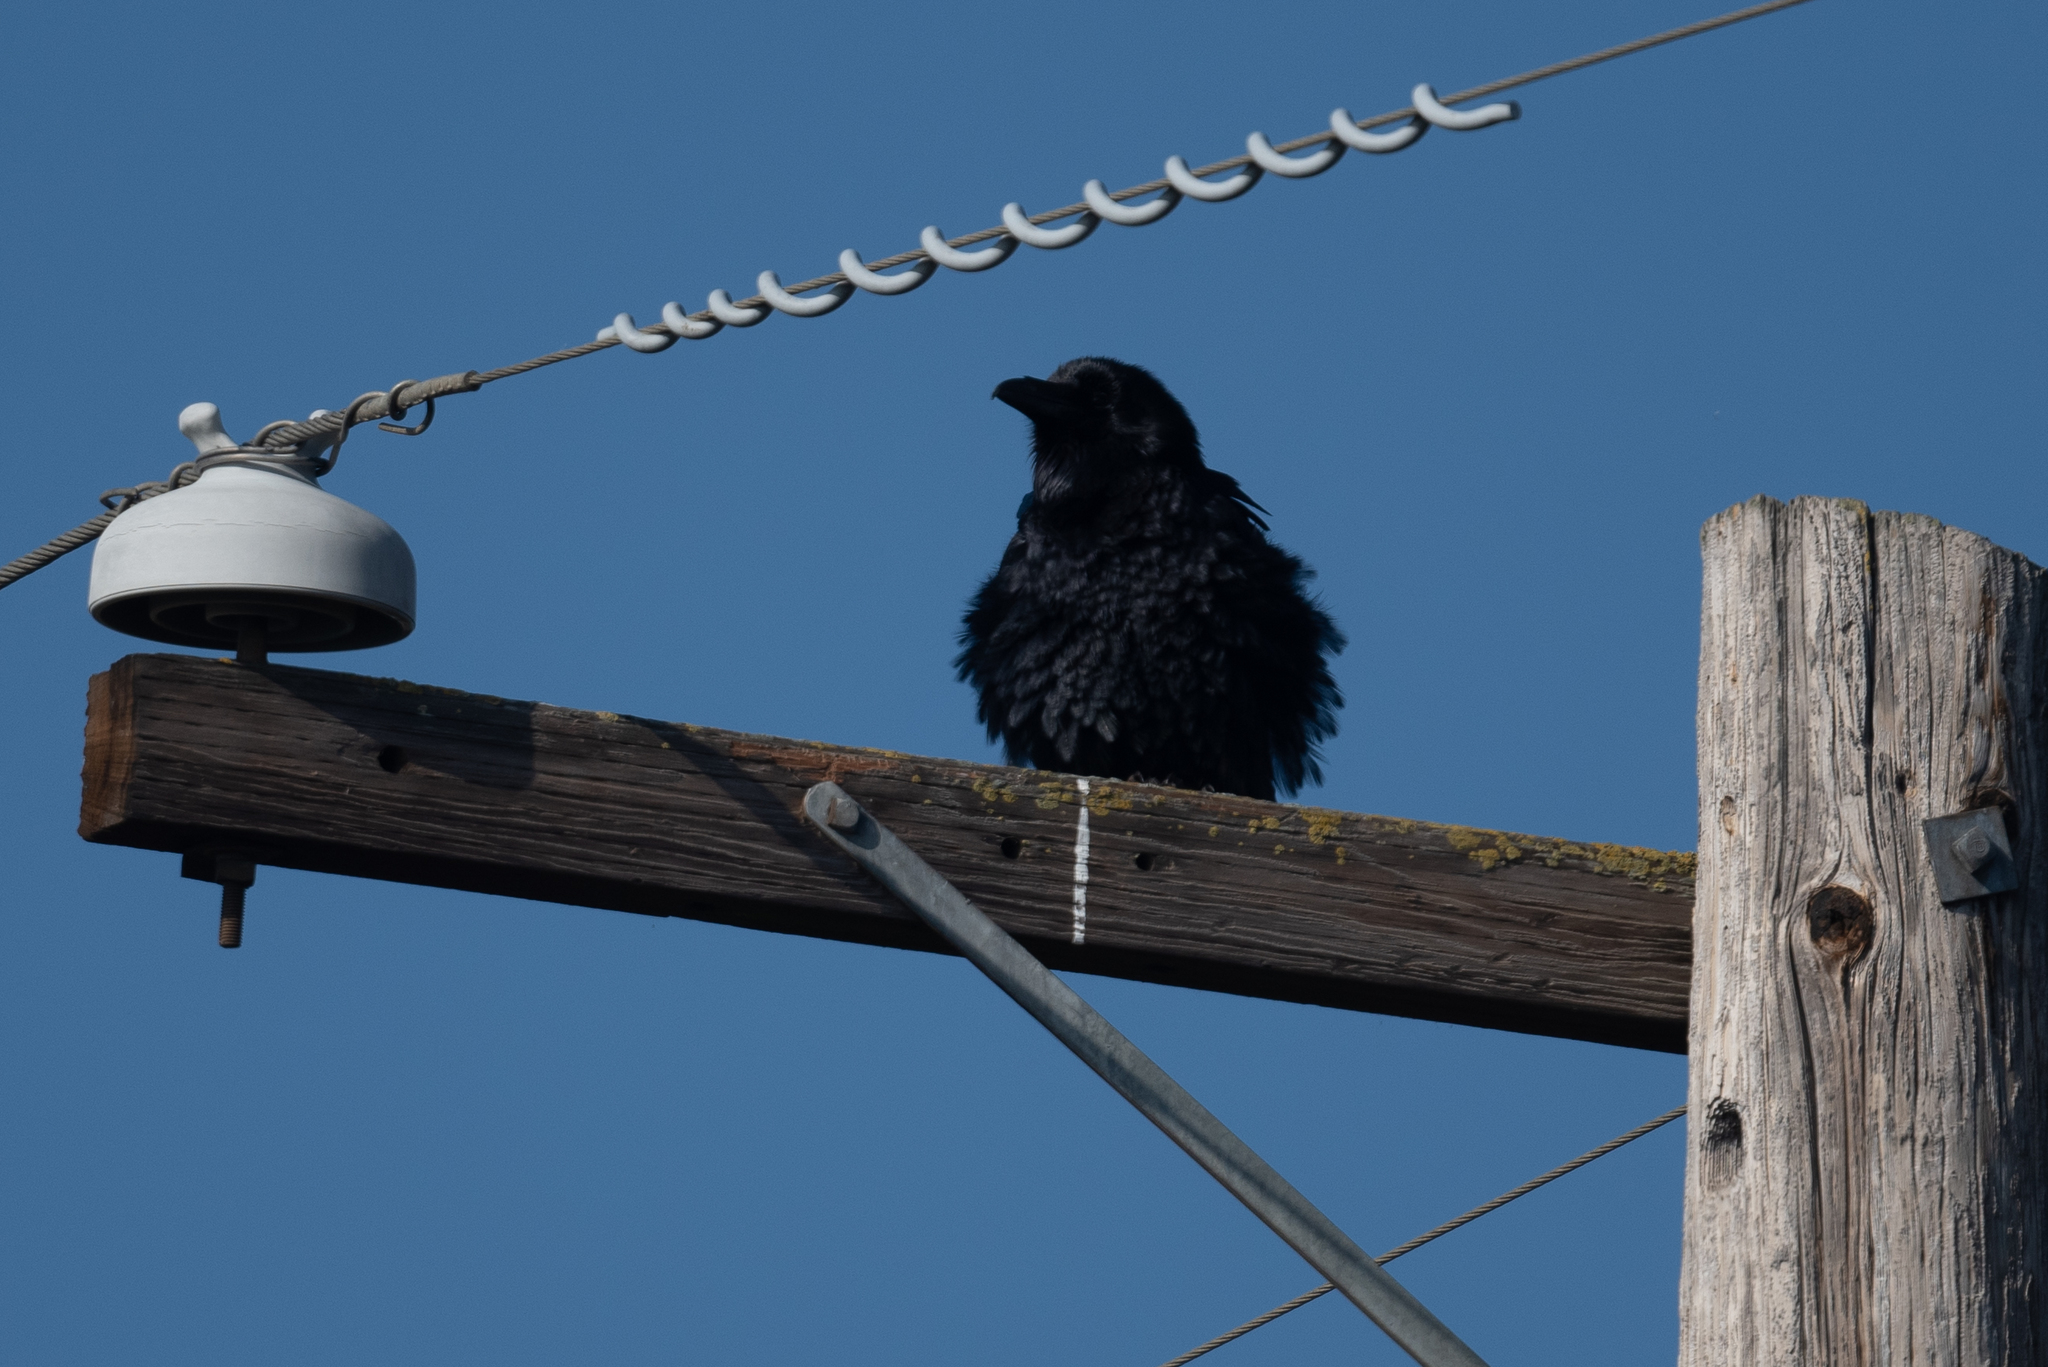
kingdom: Animalia
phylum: Chordata
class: Aves
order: Passeriformes
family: Corvidae
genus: Corvus
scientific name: Corvus corax
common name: Common raven
